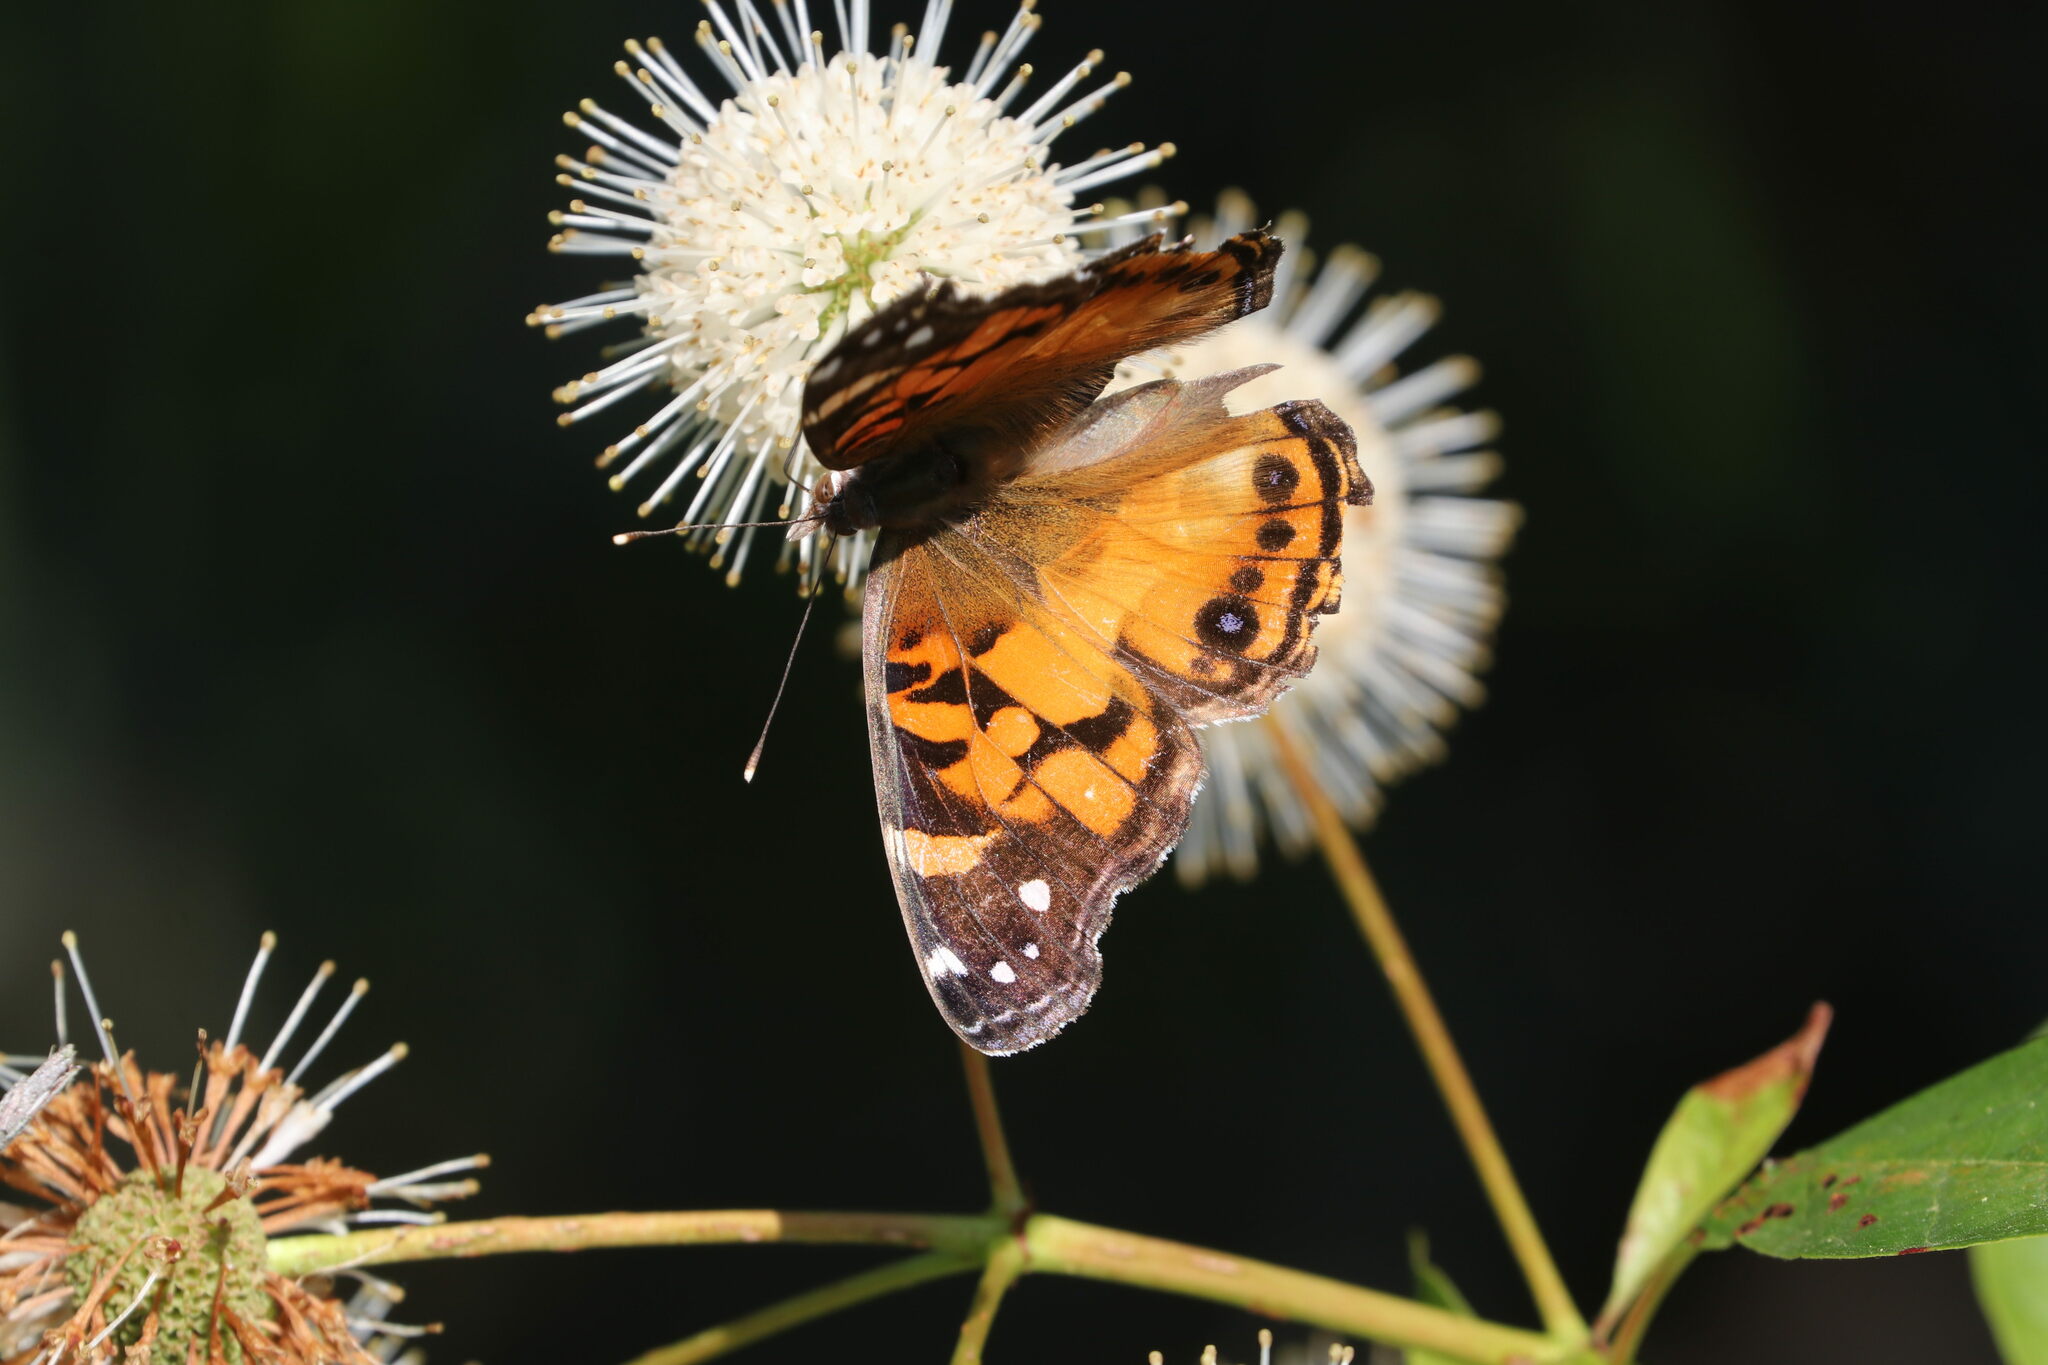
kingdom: Animalia
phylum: Arthropoda
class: Insecta
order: Lepidoptera
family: Nymphalidae
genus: Vanessa
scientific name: Vanessa virginiensis
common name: American lady
